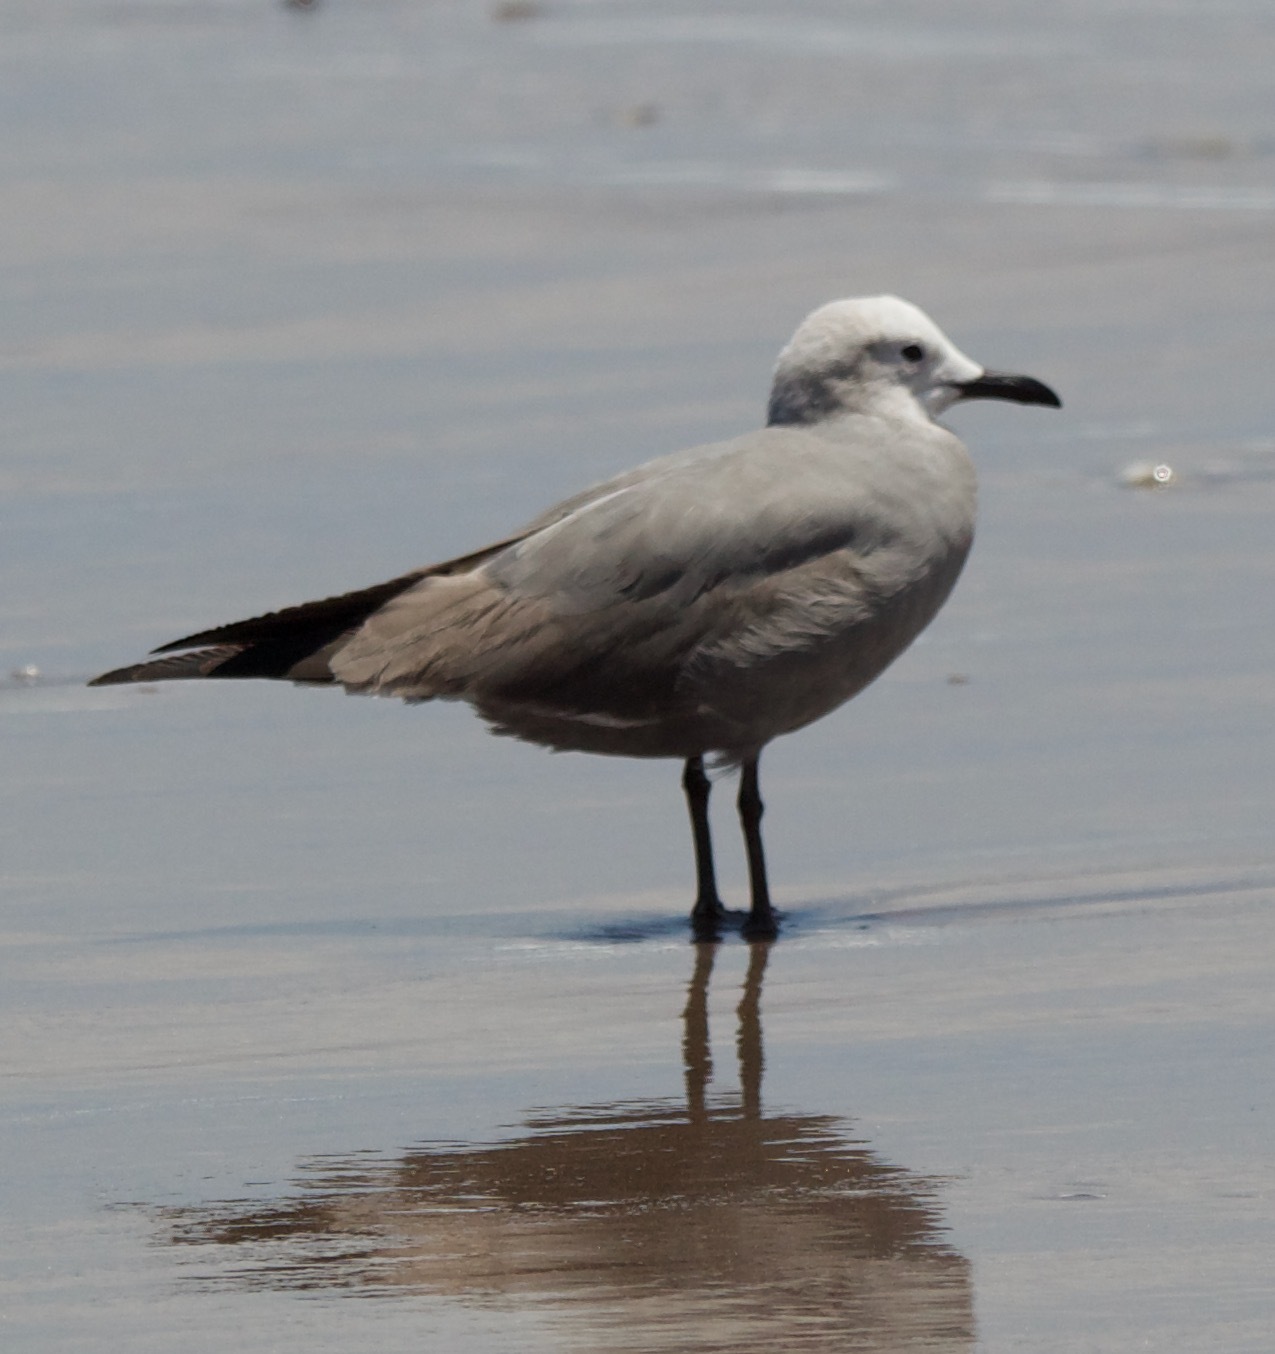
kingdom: Animalia
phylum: Chordata
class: Aves
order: Charadriiformes
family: Laridae
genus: Leucophaeus
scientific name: Leucophaeus modestus
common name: Gray gull
